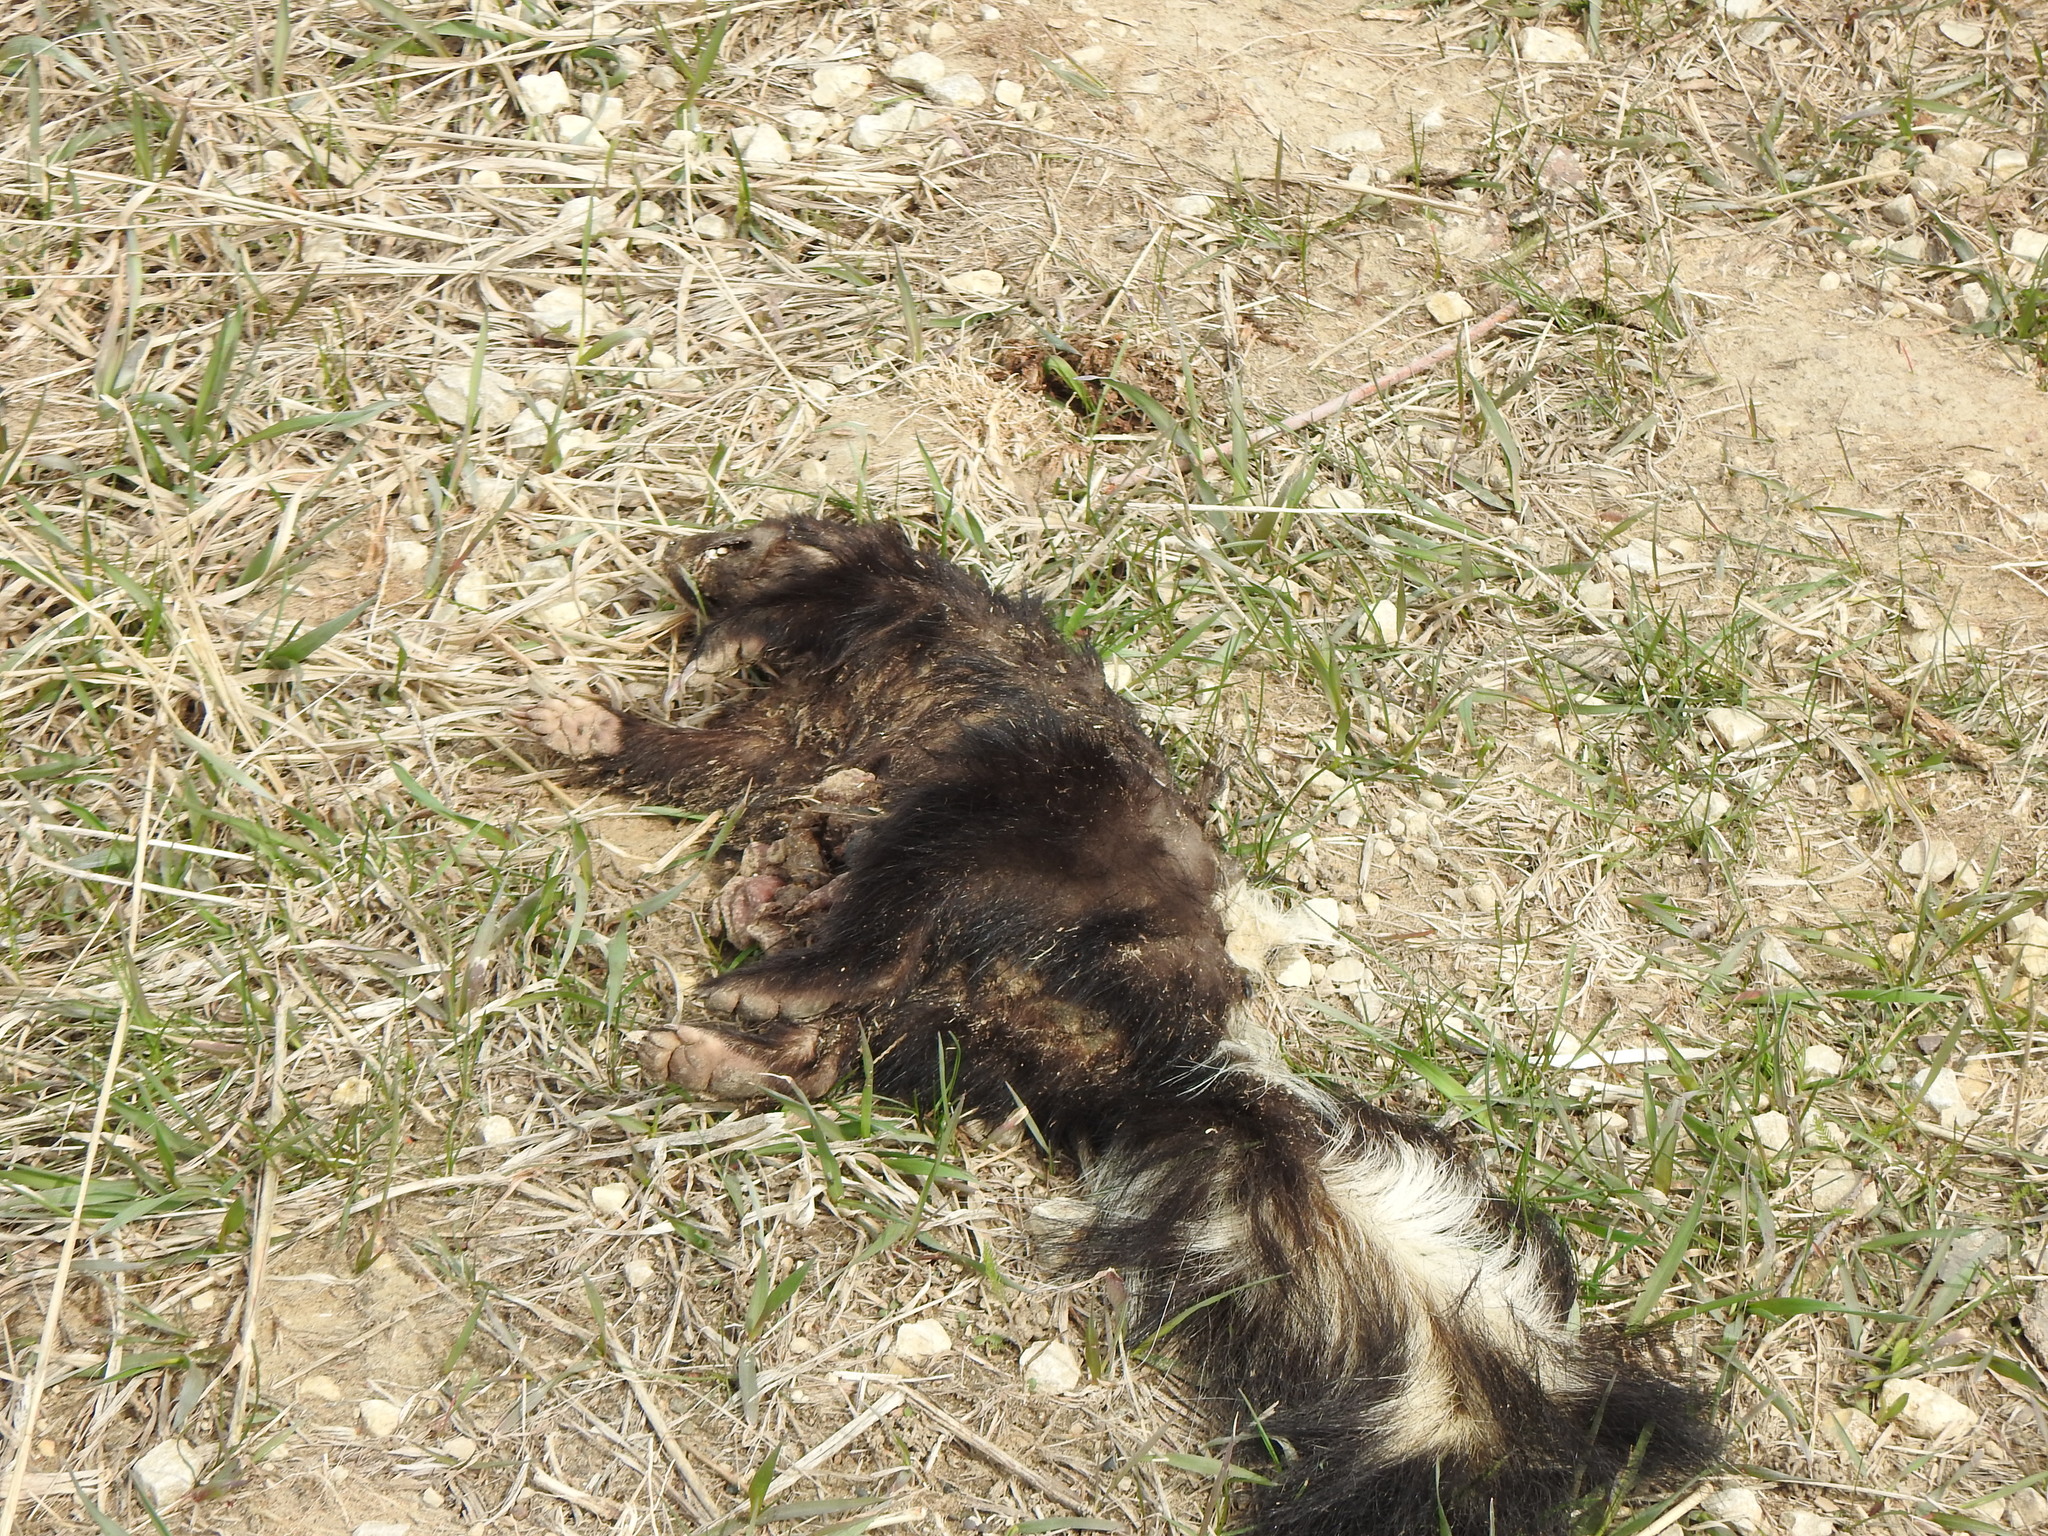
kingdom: Animalia
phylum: Chordata
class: Mammalia
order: Carnivora
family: Mephitidae
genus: Mephitis
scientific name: Mephitis mephitis
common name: Striped skunk
